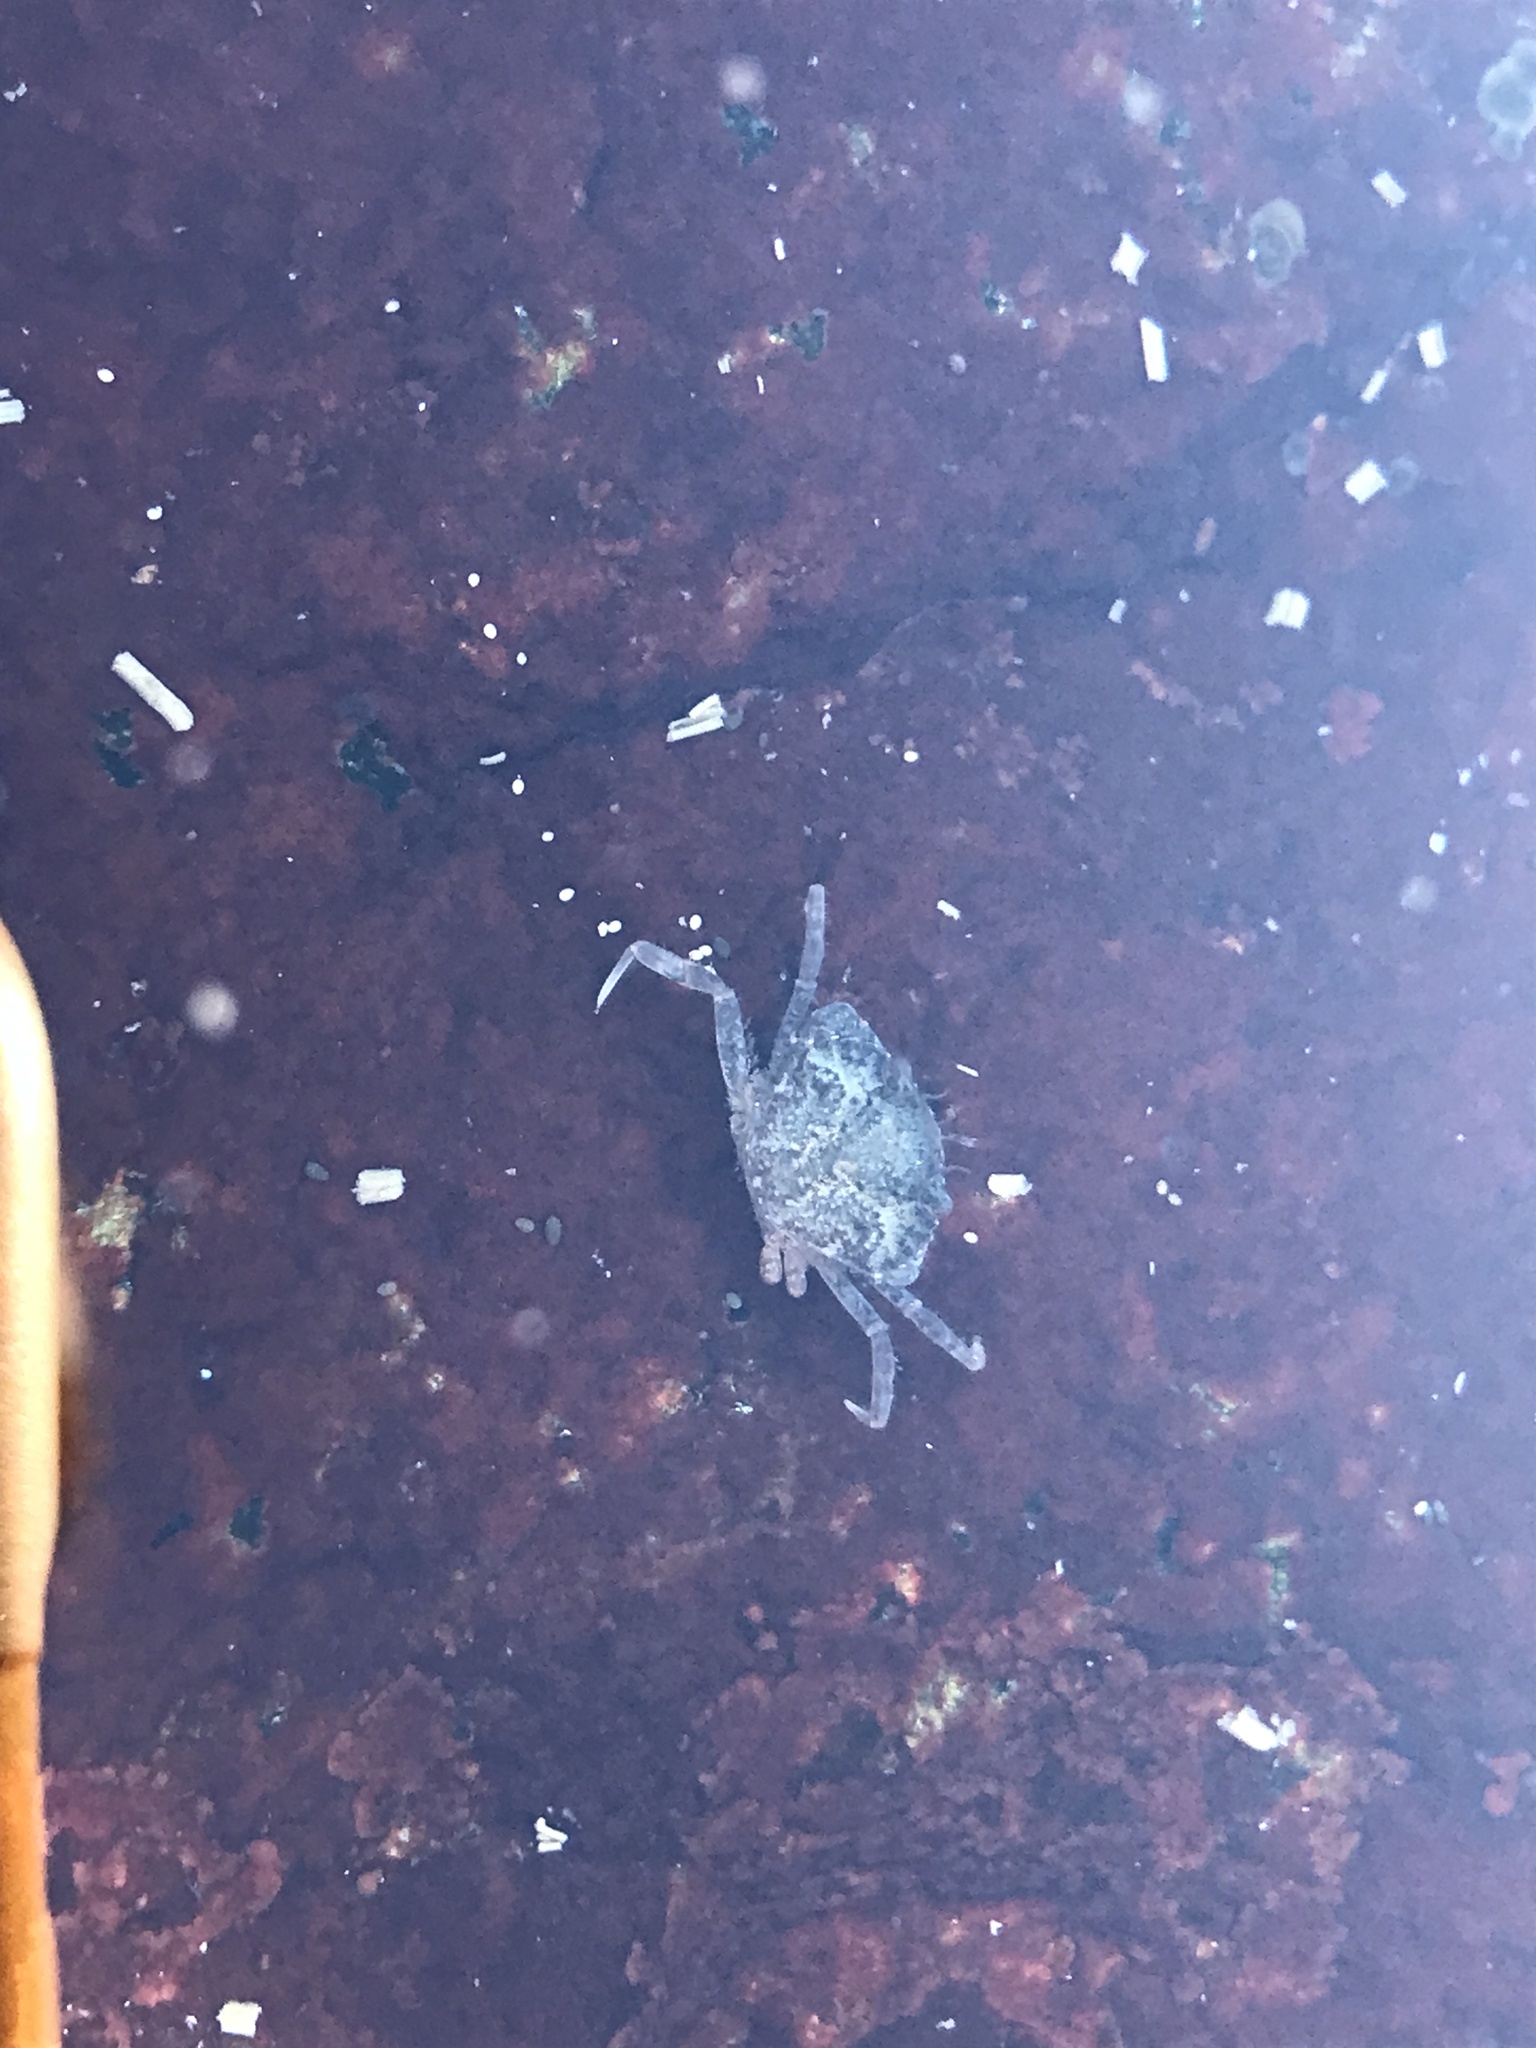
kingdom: Animalia
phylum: Arthropoda
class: Malacostraca
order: Decapoda
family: Carcinidae
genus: Carcinus
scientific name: Carcinus maenas
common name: European green crab
